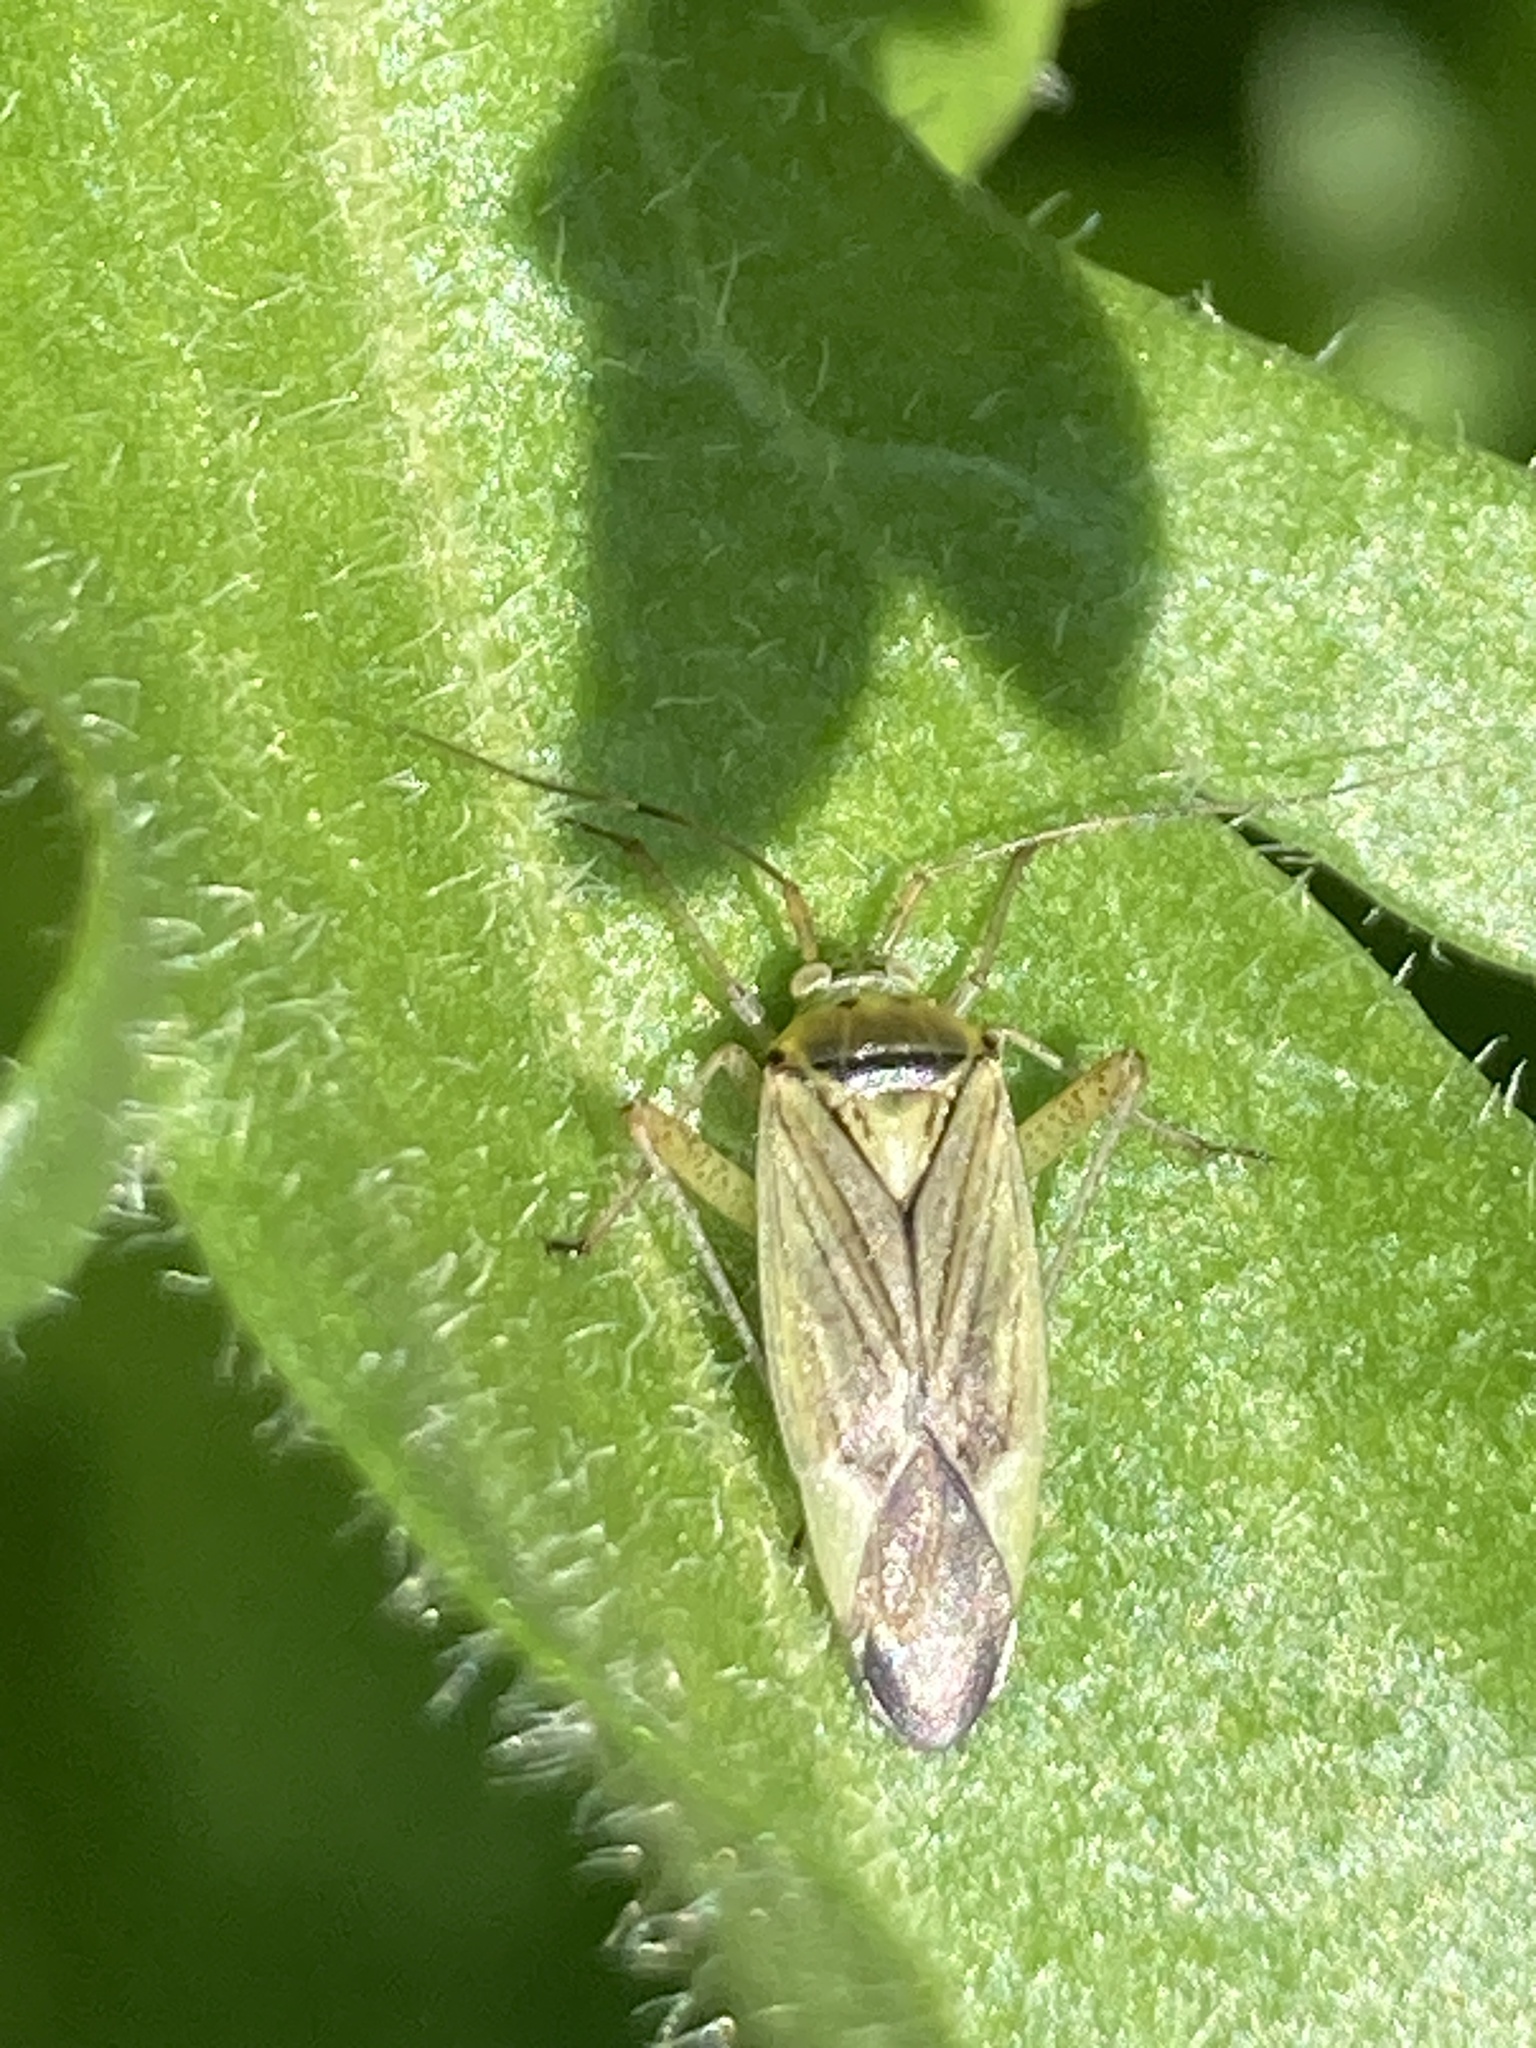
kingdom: Animalia
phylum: Arthropoda
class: Insecta
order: Hemiptera
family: Miridae
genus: Closterotomus
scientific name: Closterotomus trivialis
